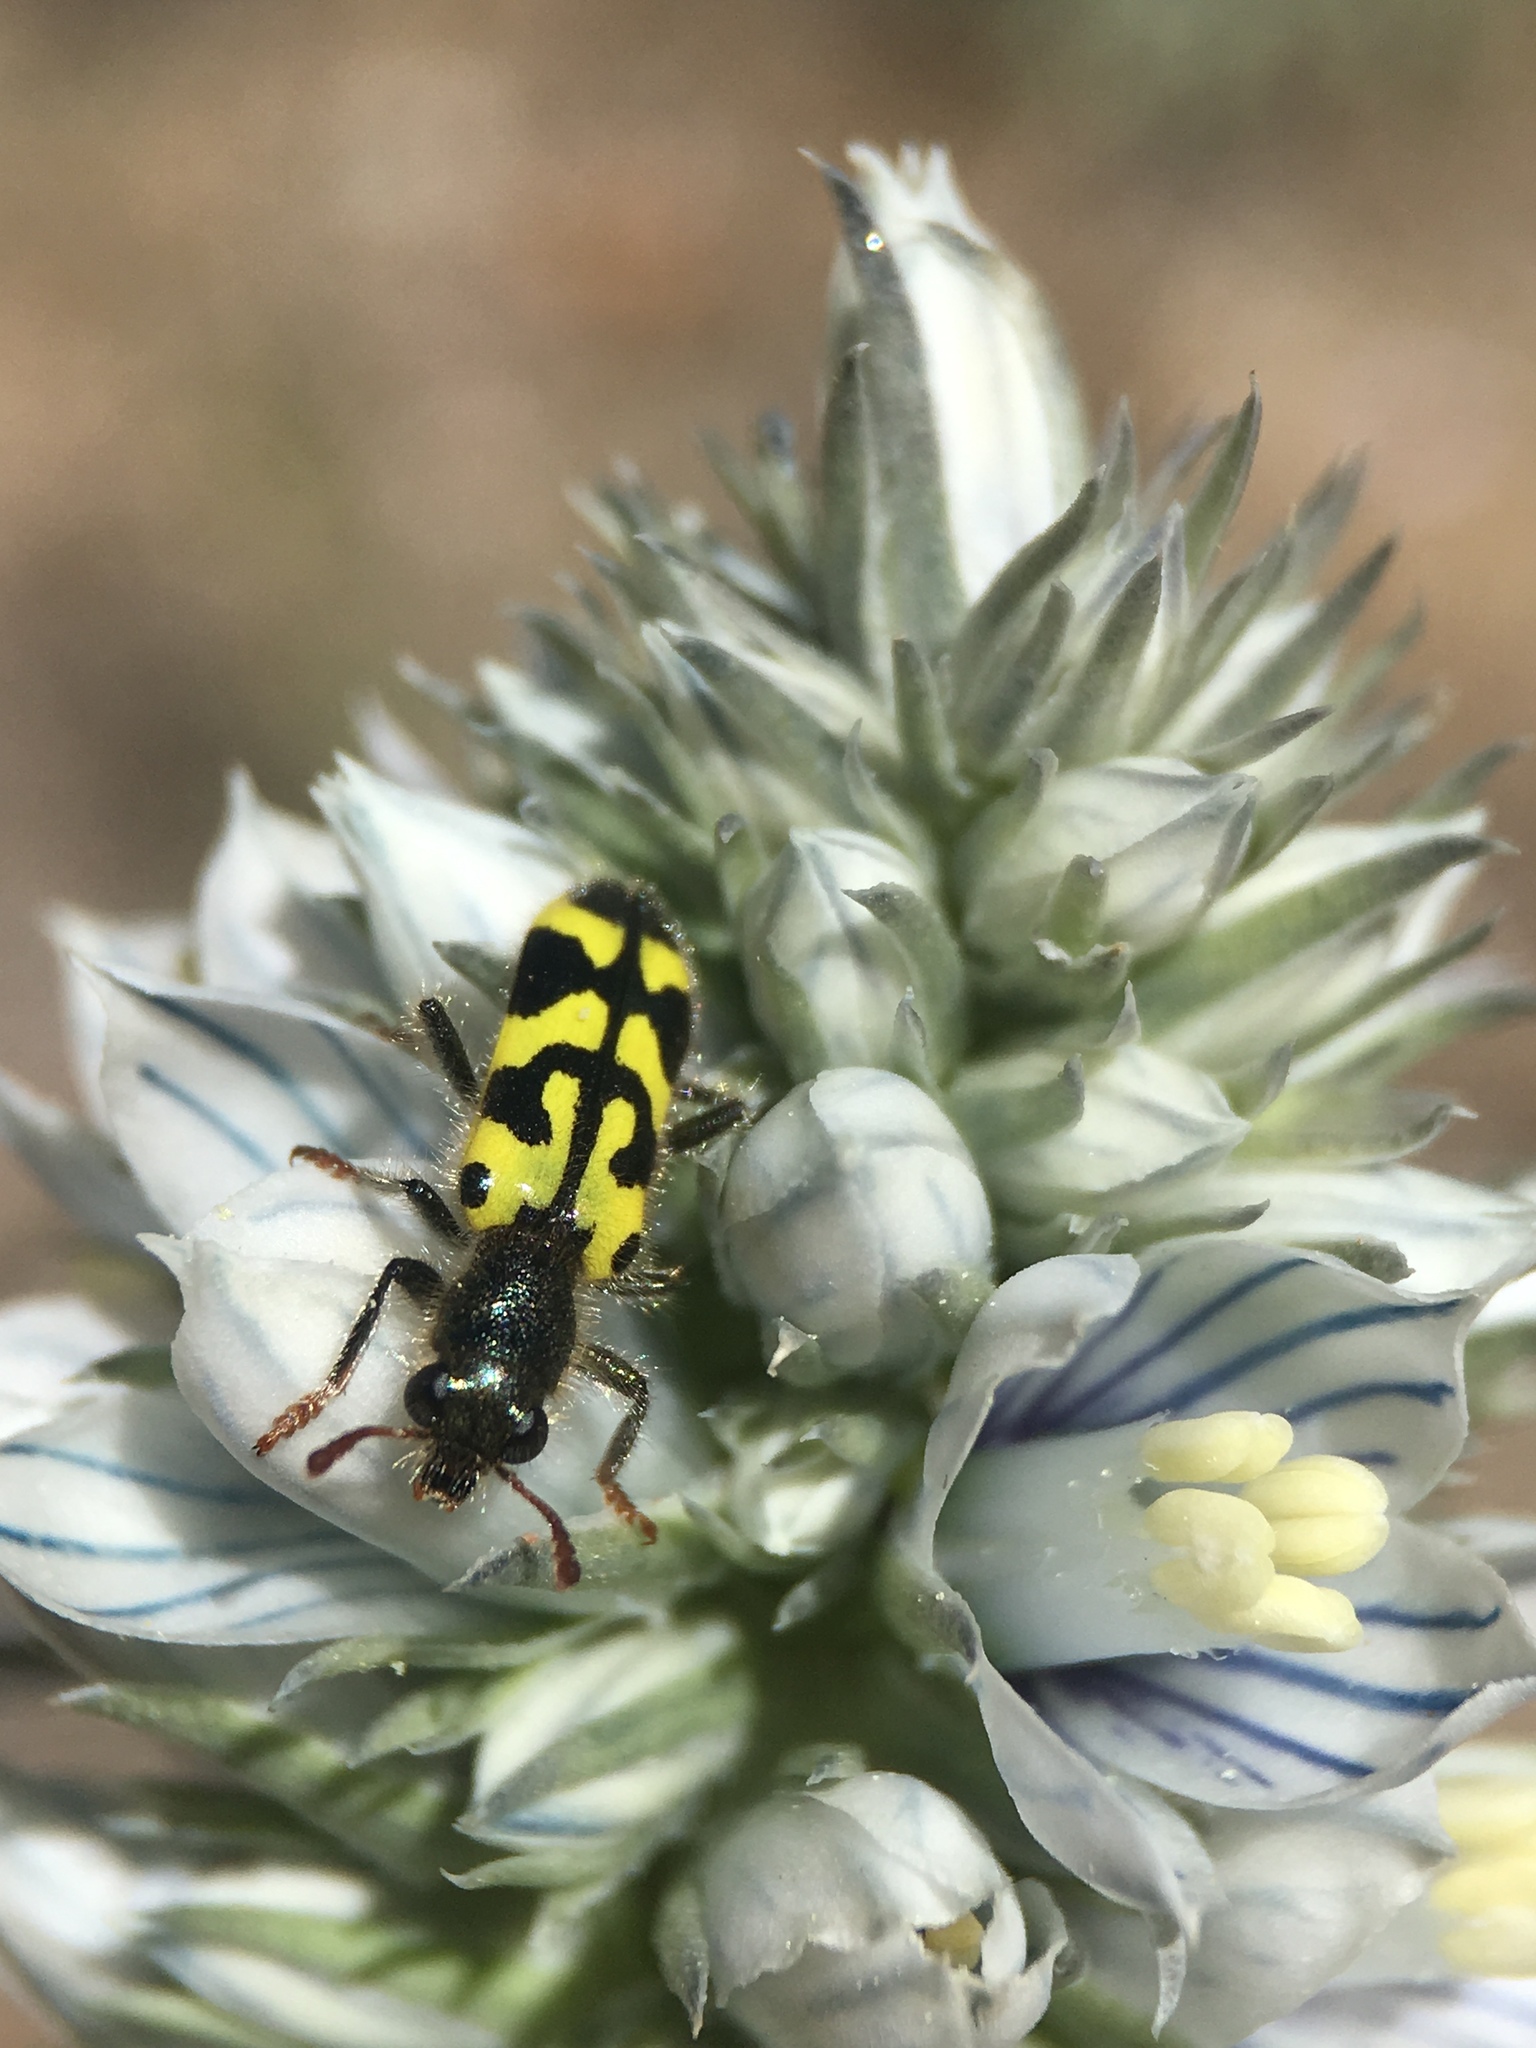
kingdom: Animalia
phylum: Arthropoda
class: Insecta
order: Coleoptera
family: Cleridae
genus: Trichodes
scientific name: Trichodes ornatus
